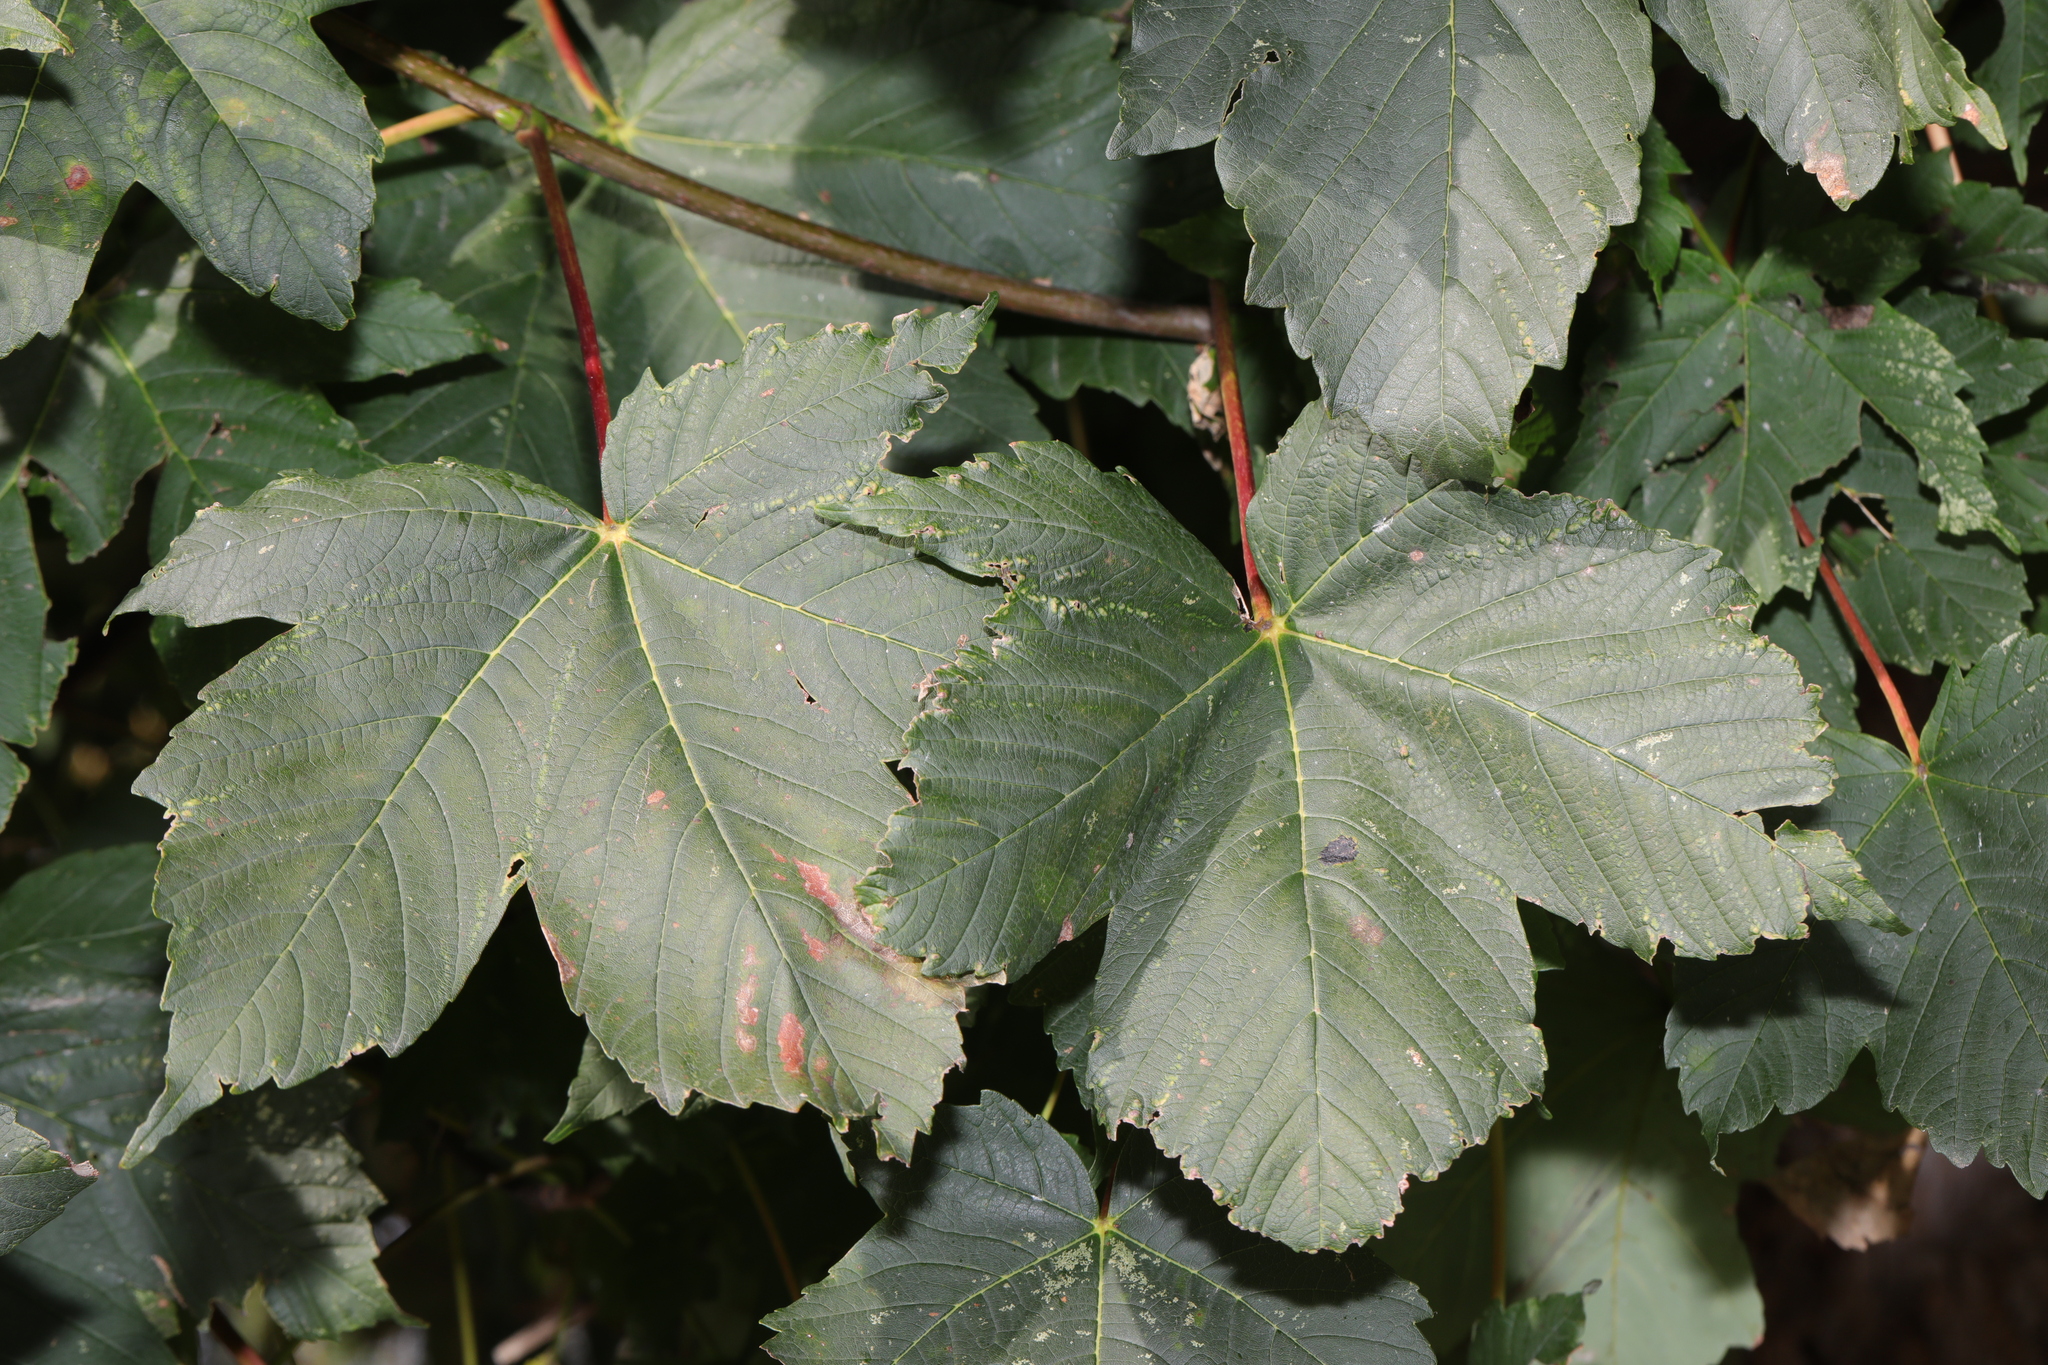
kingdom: Plantae
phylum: Tracheophyta
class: Magnoliopsida
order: Sapindales
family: Sapindaceae
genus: Acer
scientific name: Acer pseudoplatanus
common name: Sycamore
